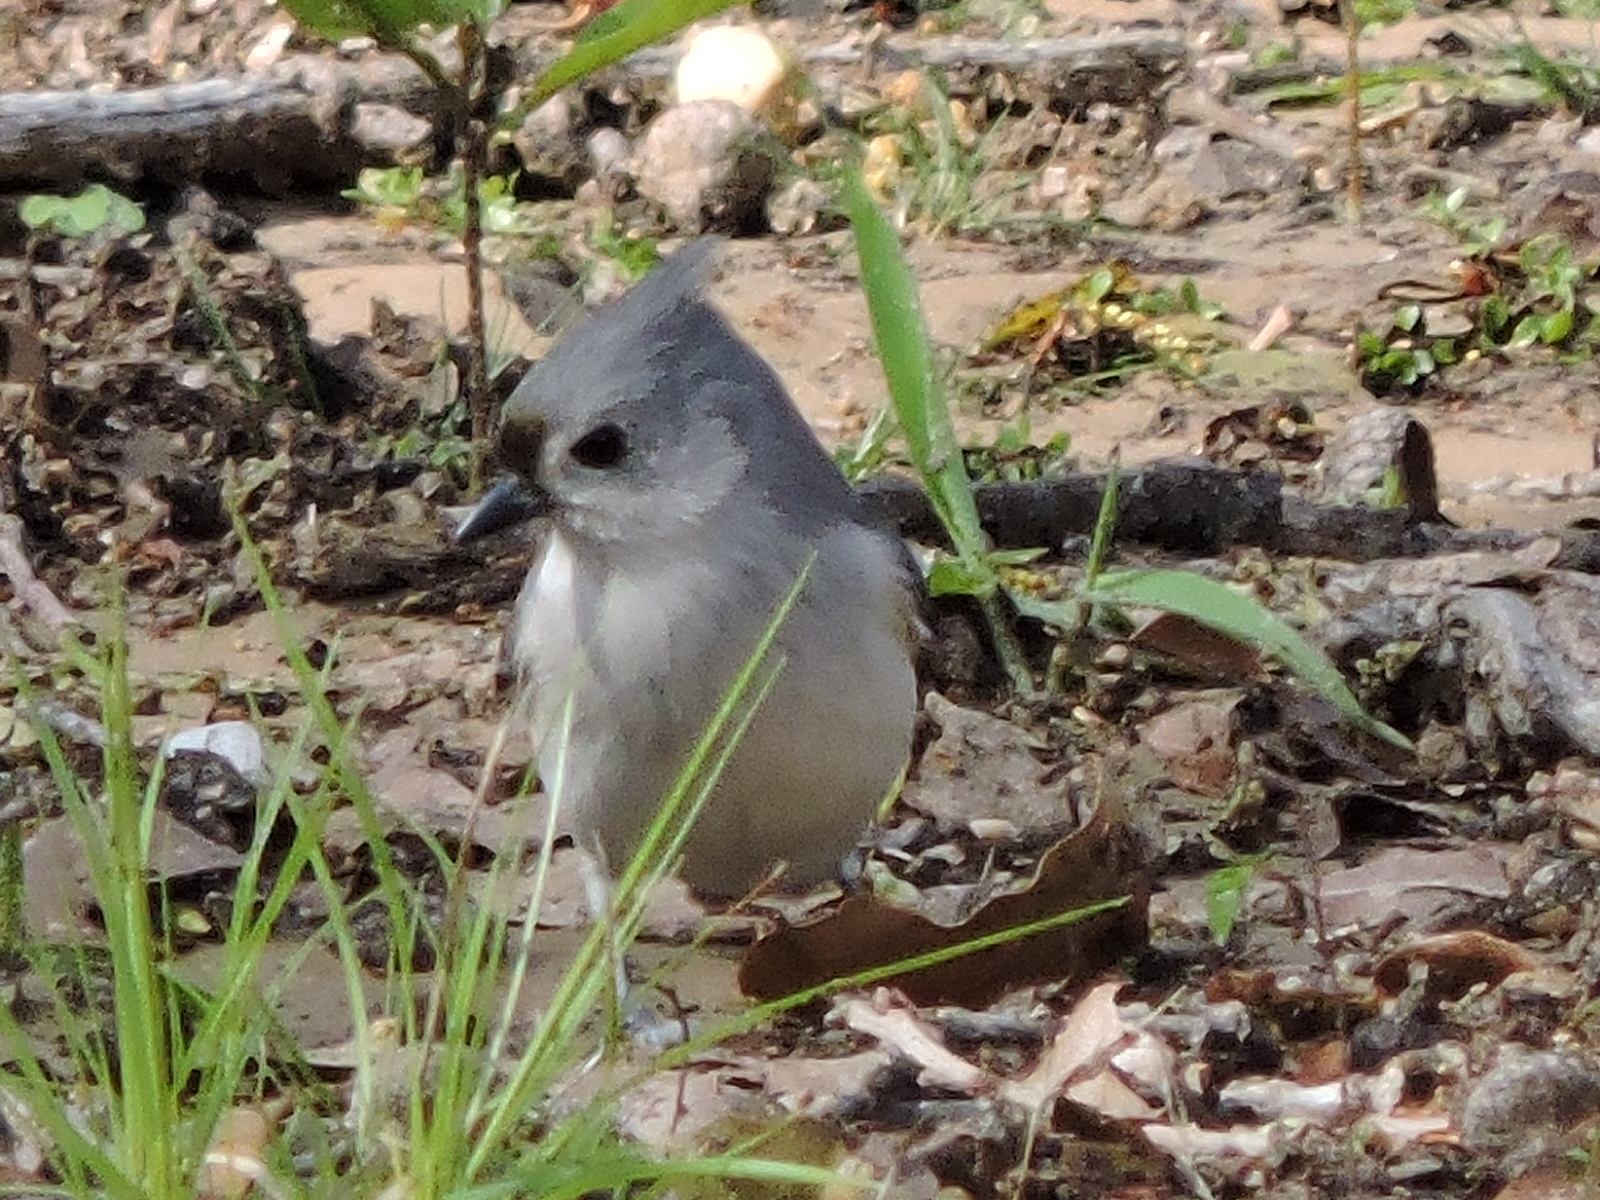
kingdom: Animalia
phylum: Chordata
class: Aves
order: Passeriformes
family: Paridae
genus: Baeolophus
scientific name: Baeolophus bicolor
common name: Tufted titmouse
